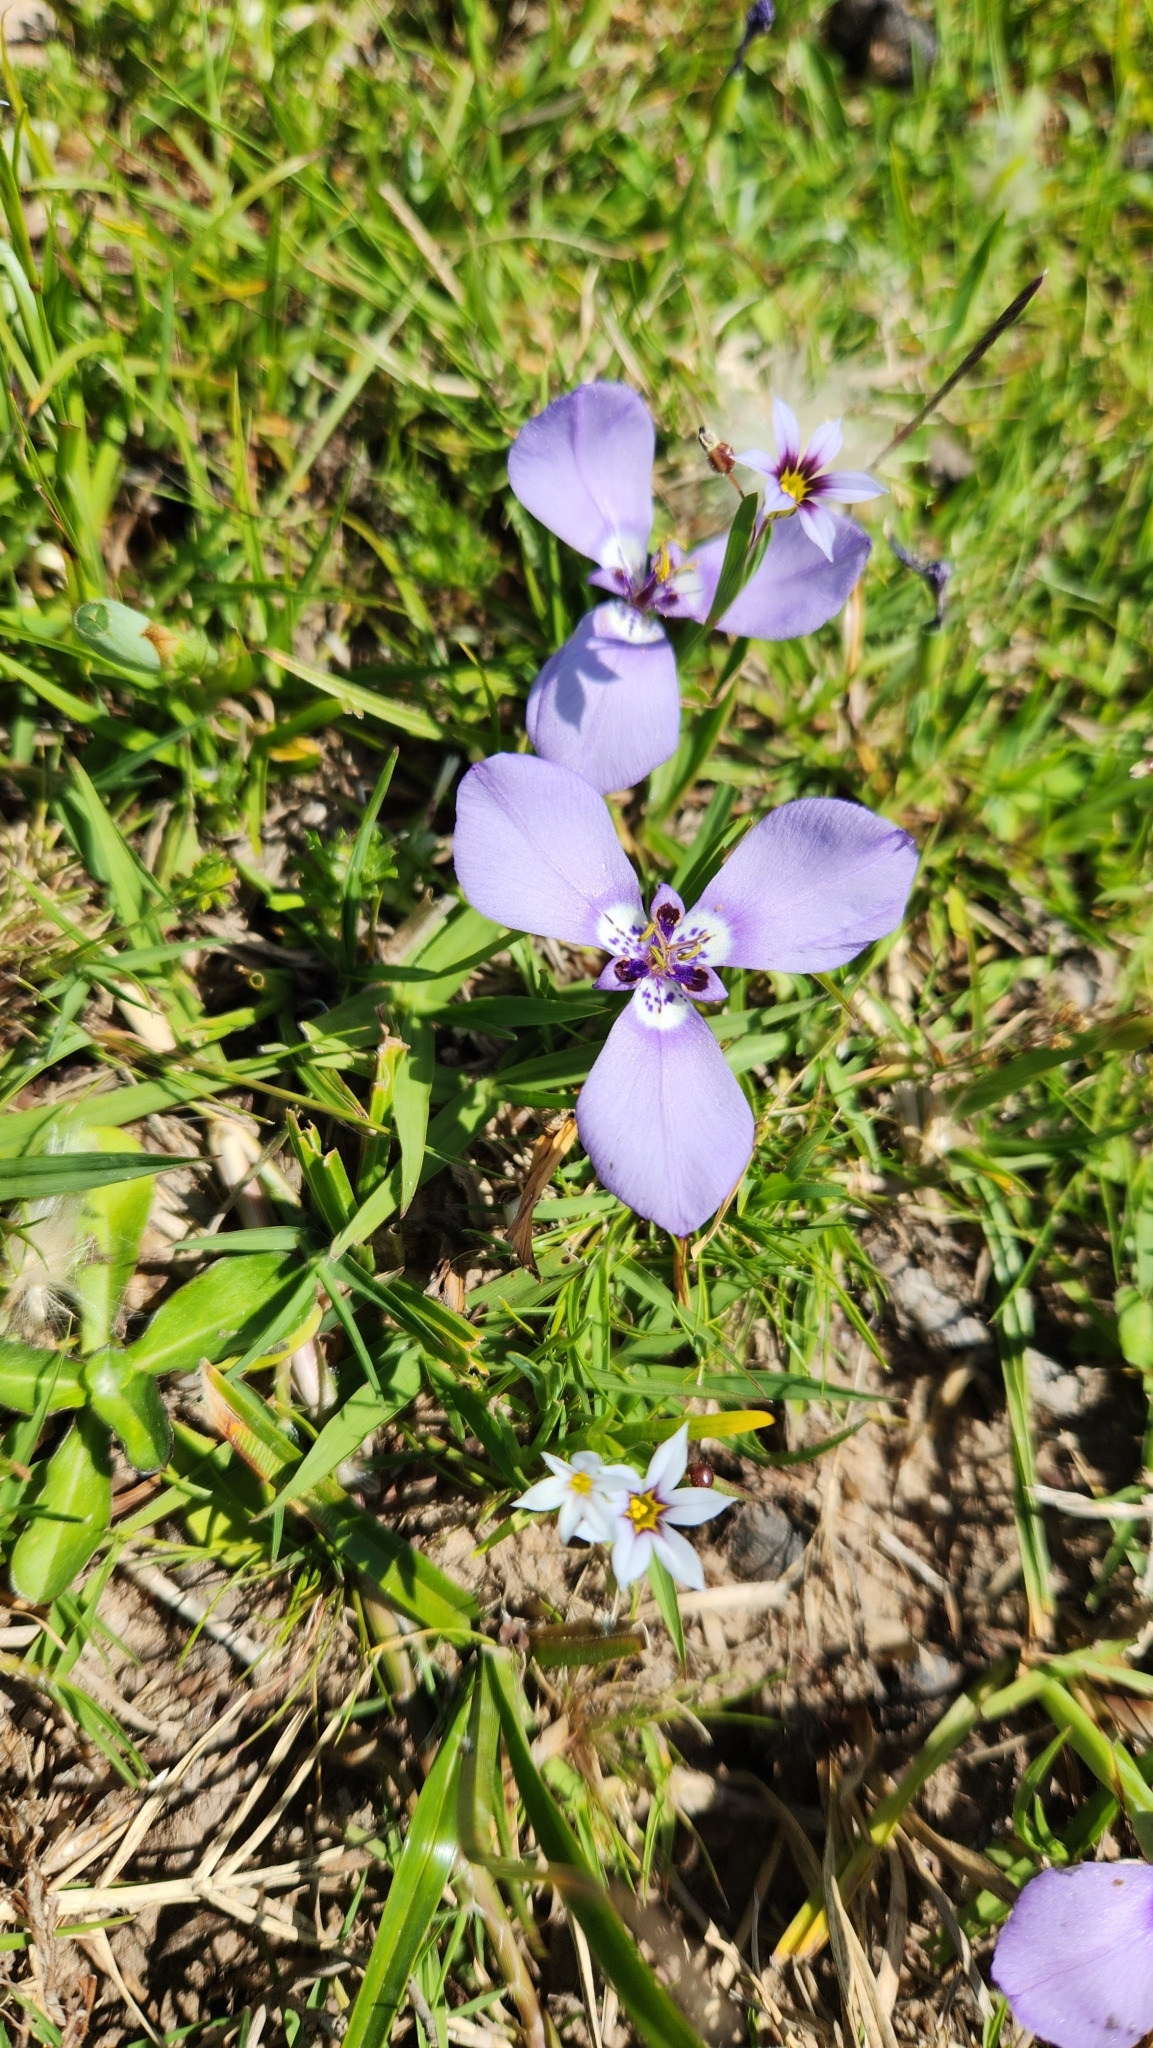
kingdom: Plantae
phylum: Tracheophyta
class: Liliopsida
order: Asparagales
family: Iridaceae
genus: Herbertia
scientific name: Herbertia lahue
